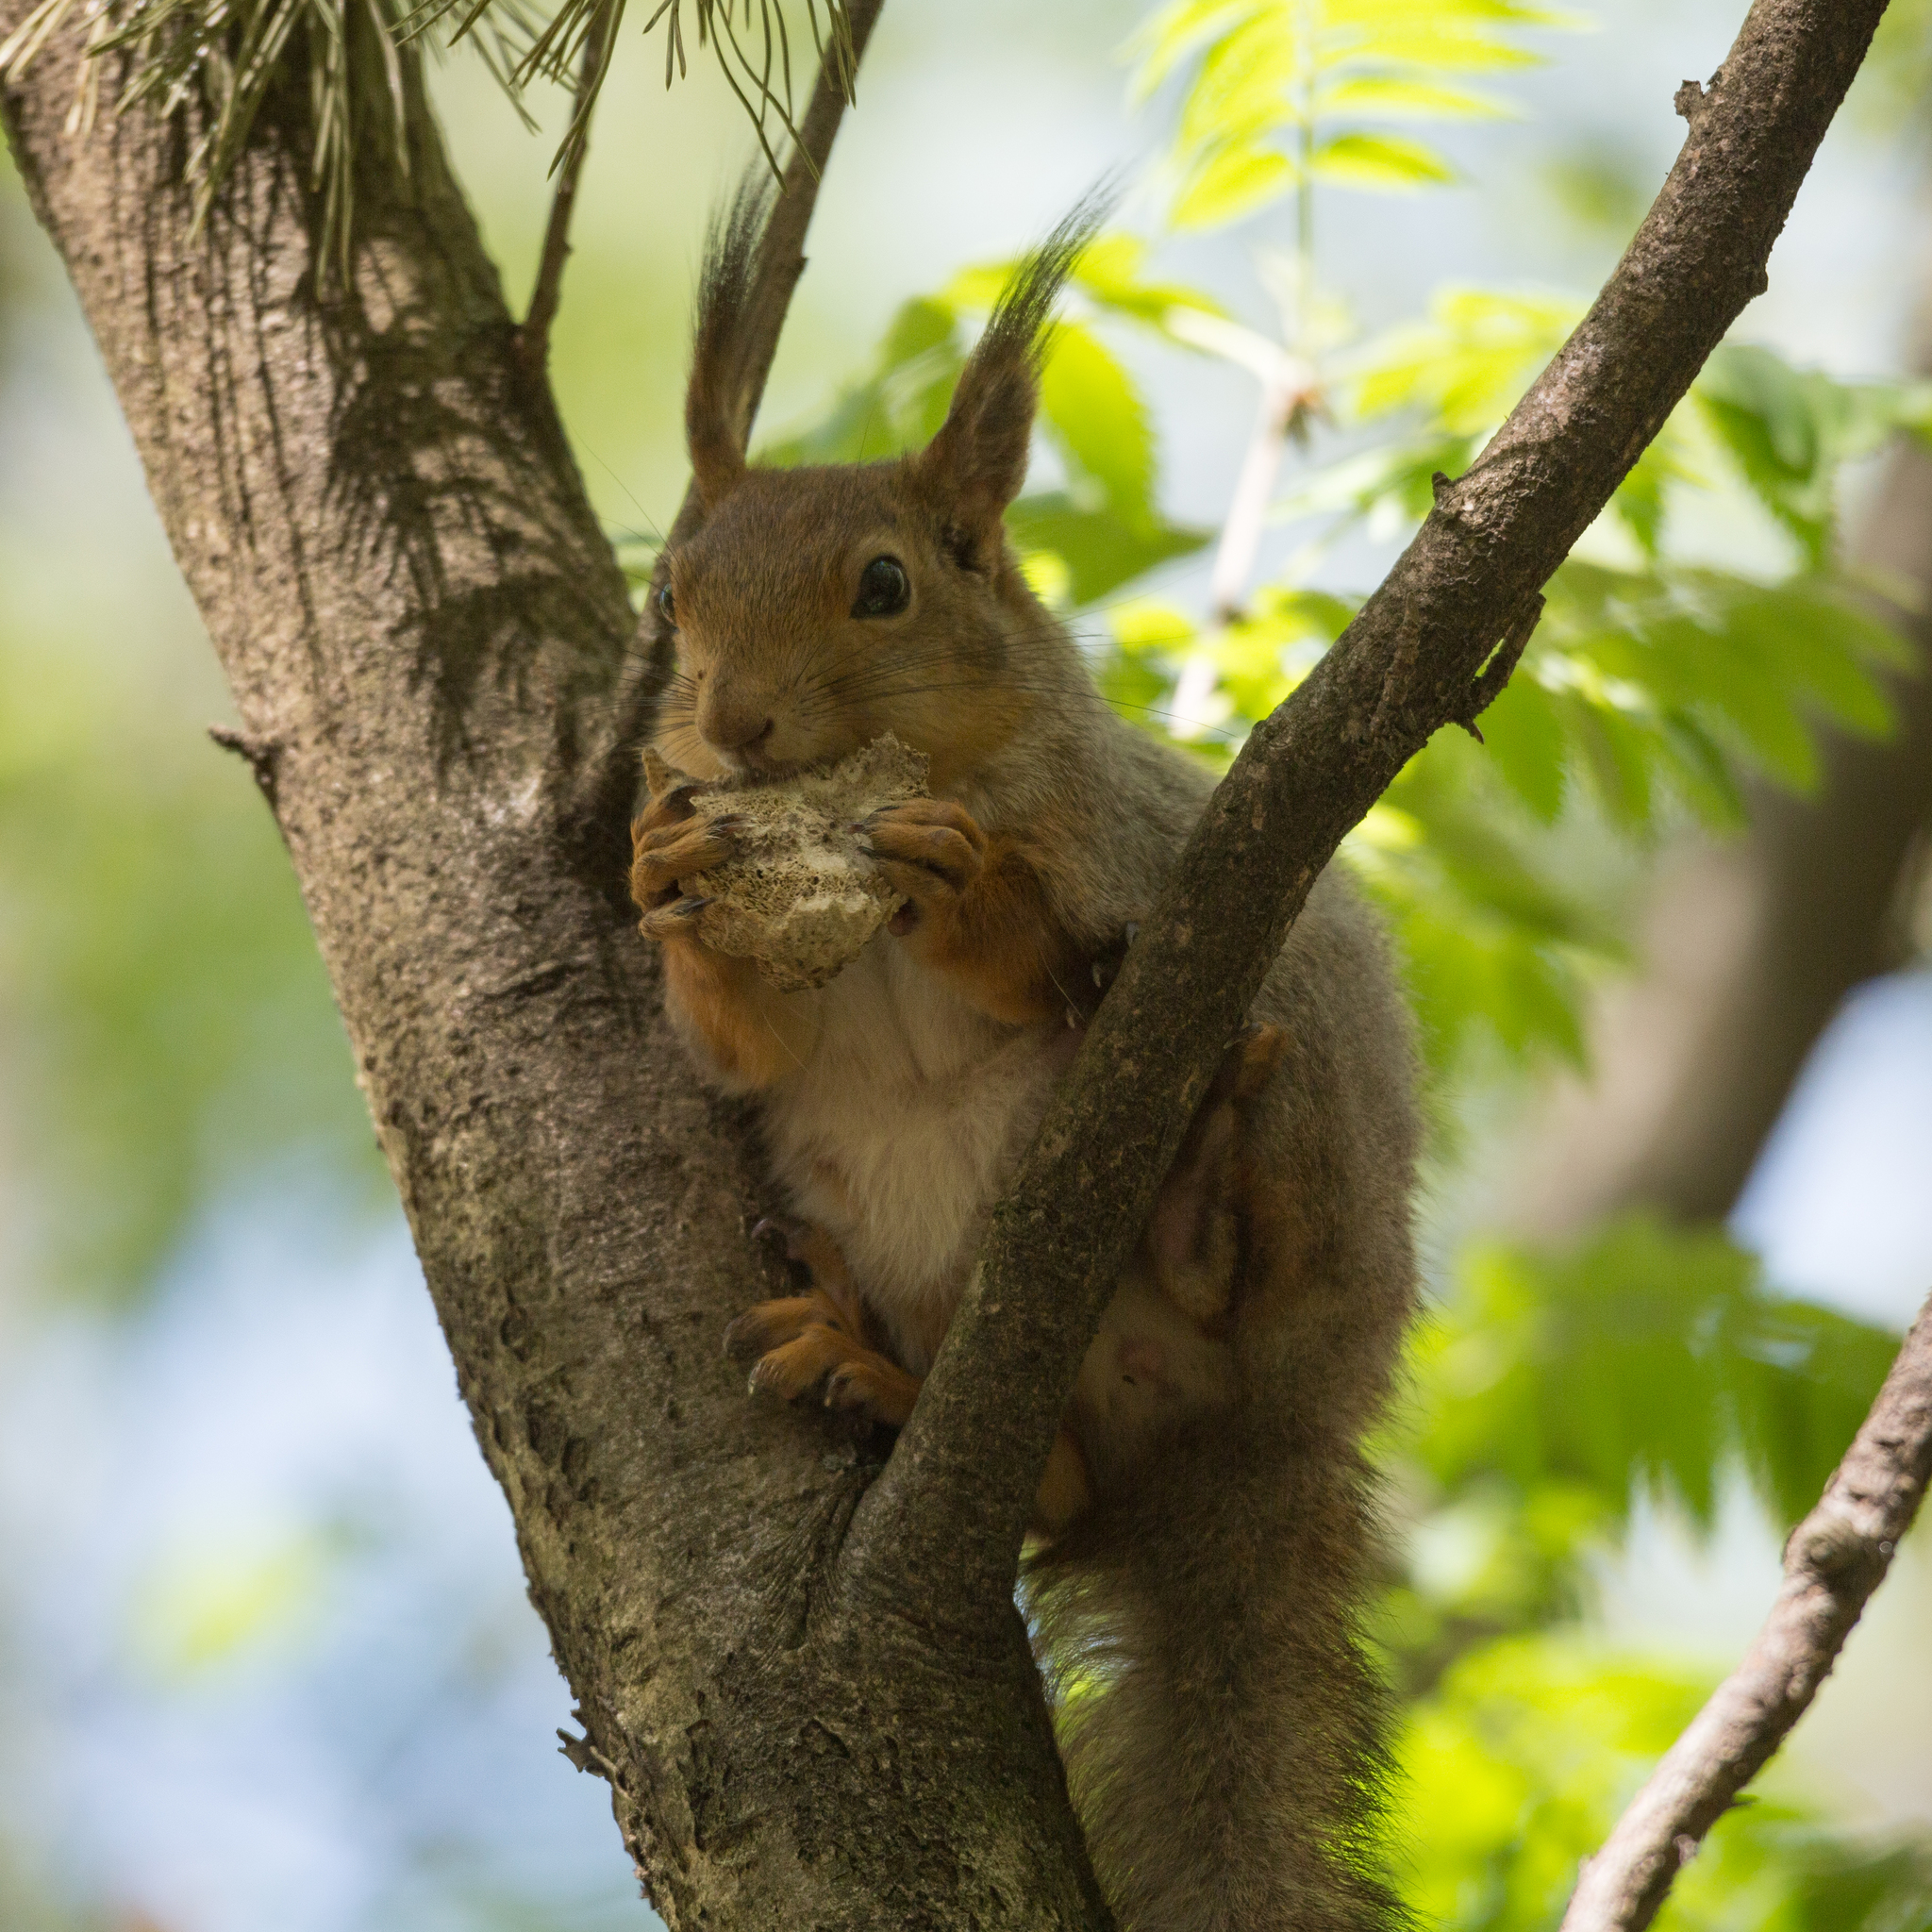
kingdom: Animalia
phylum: Chordata
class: Mammalia
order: Rodentia
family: Sciuridae
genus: Sciurus
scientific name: Sciurus vulgaris
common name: Eurasian red squirrel
